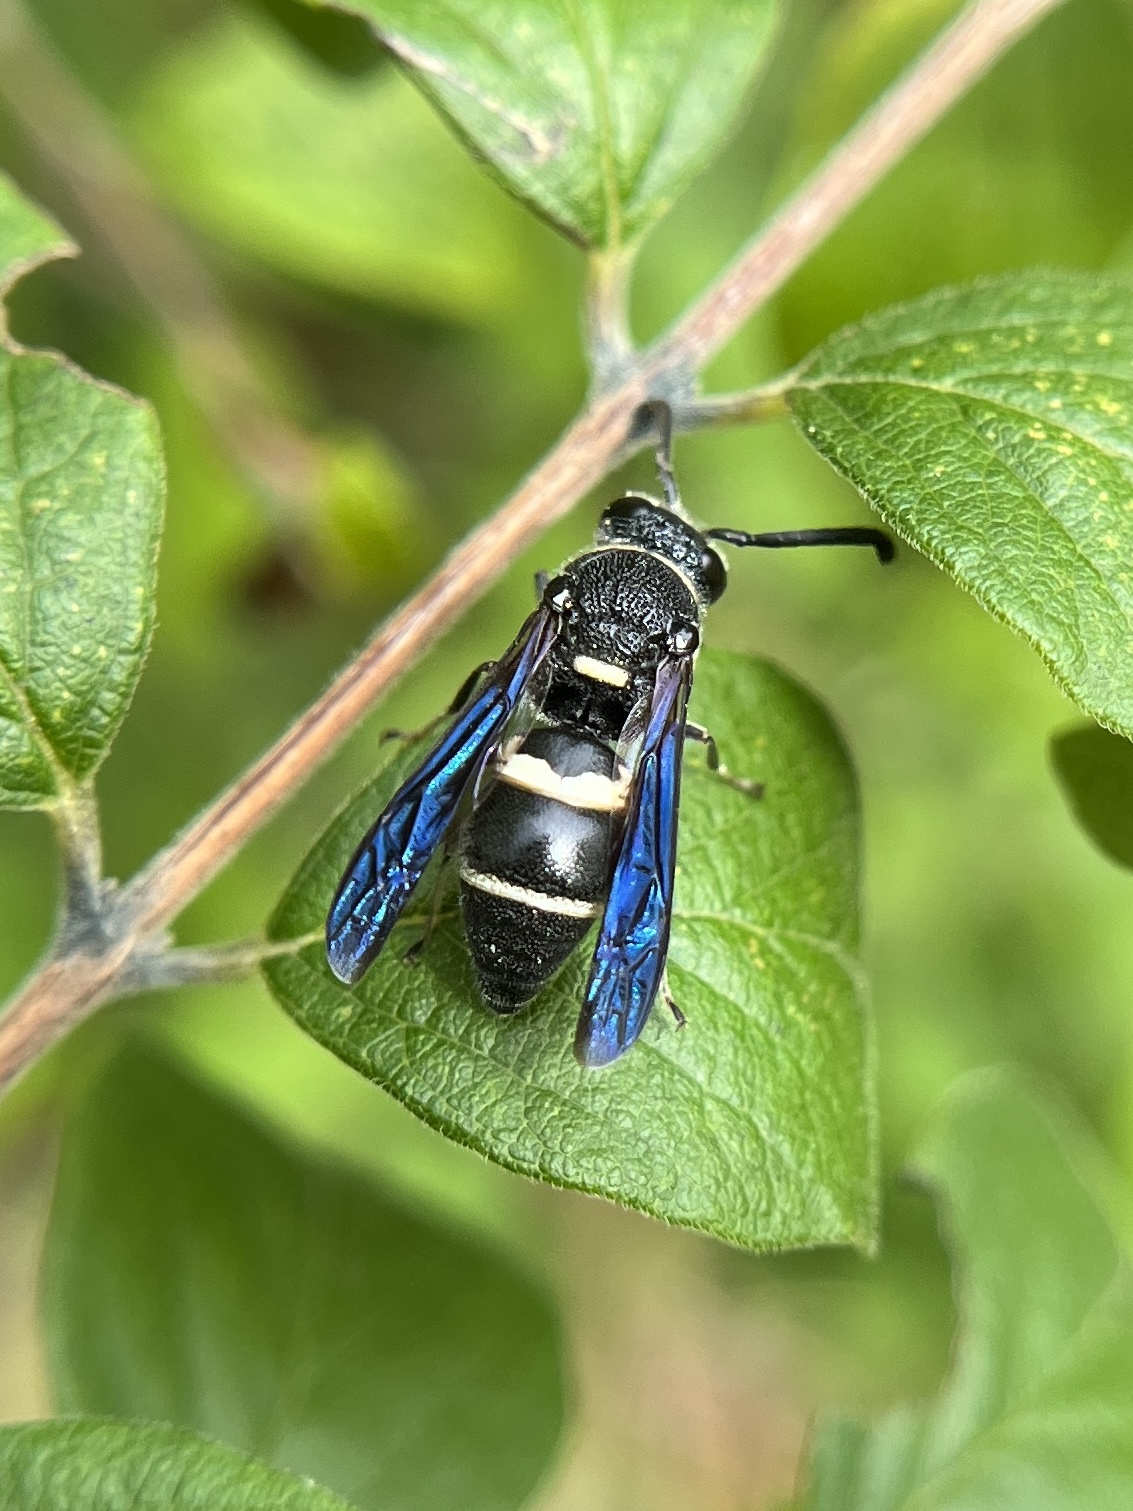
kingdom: Animalia
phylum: Arthropoda
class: Insecta
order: Hymenoptera
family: Eumenidae
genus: Euodynerus
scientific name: Euodynerus
